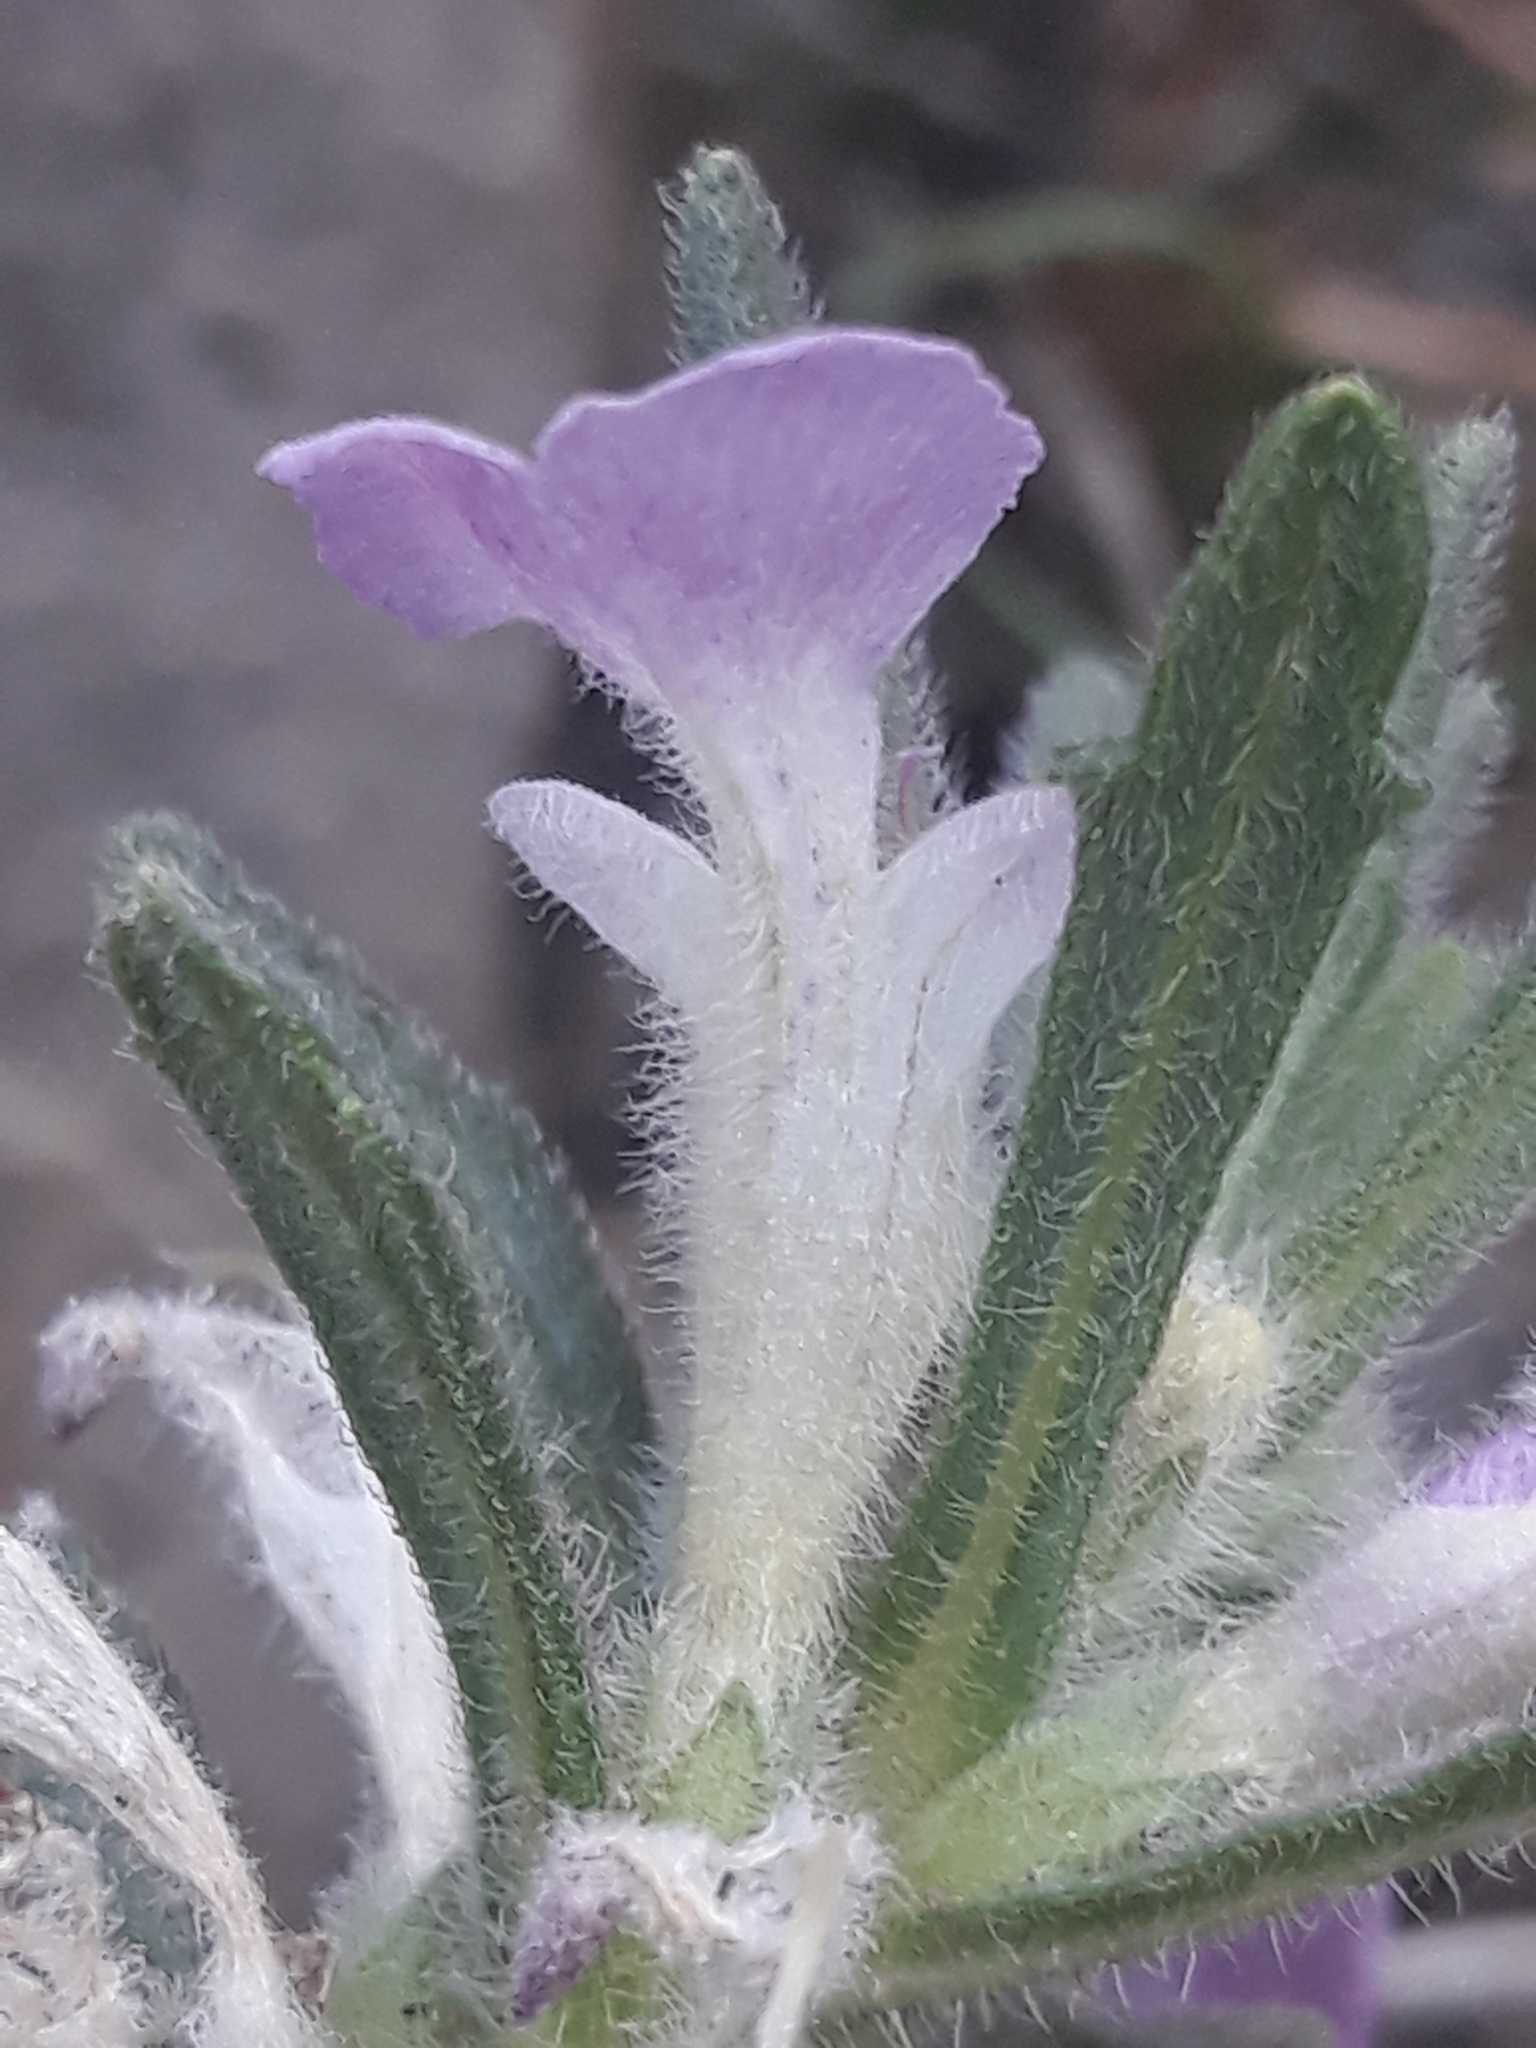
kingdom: Plantae
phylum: Tracheophyta
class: Magnoliopsida
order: Lamiales
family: Lamiaceae
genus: Ajuga
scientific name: Ajuga iva
